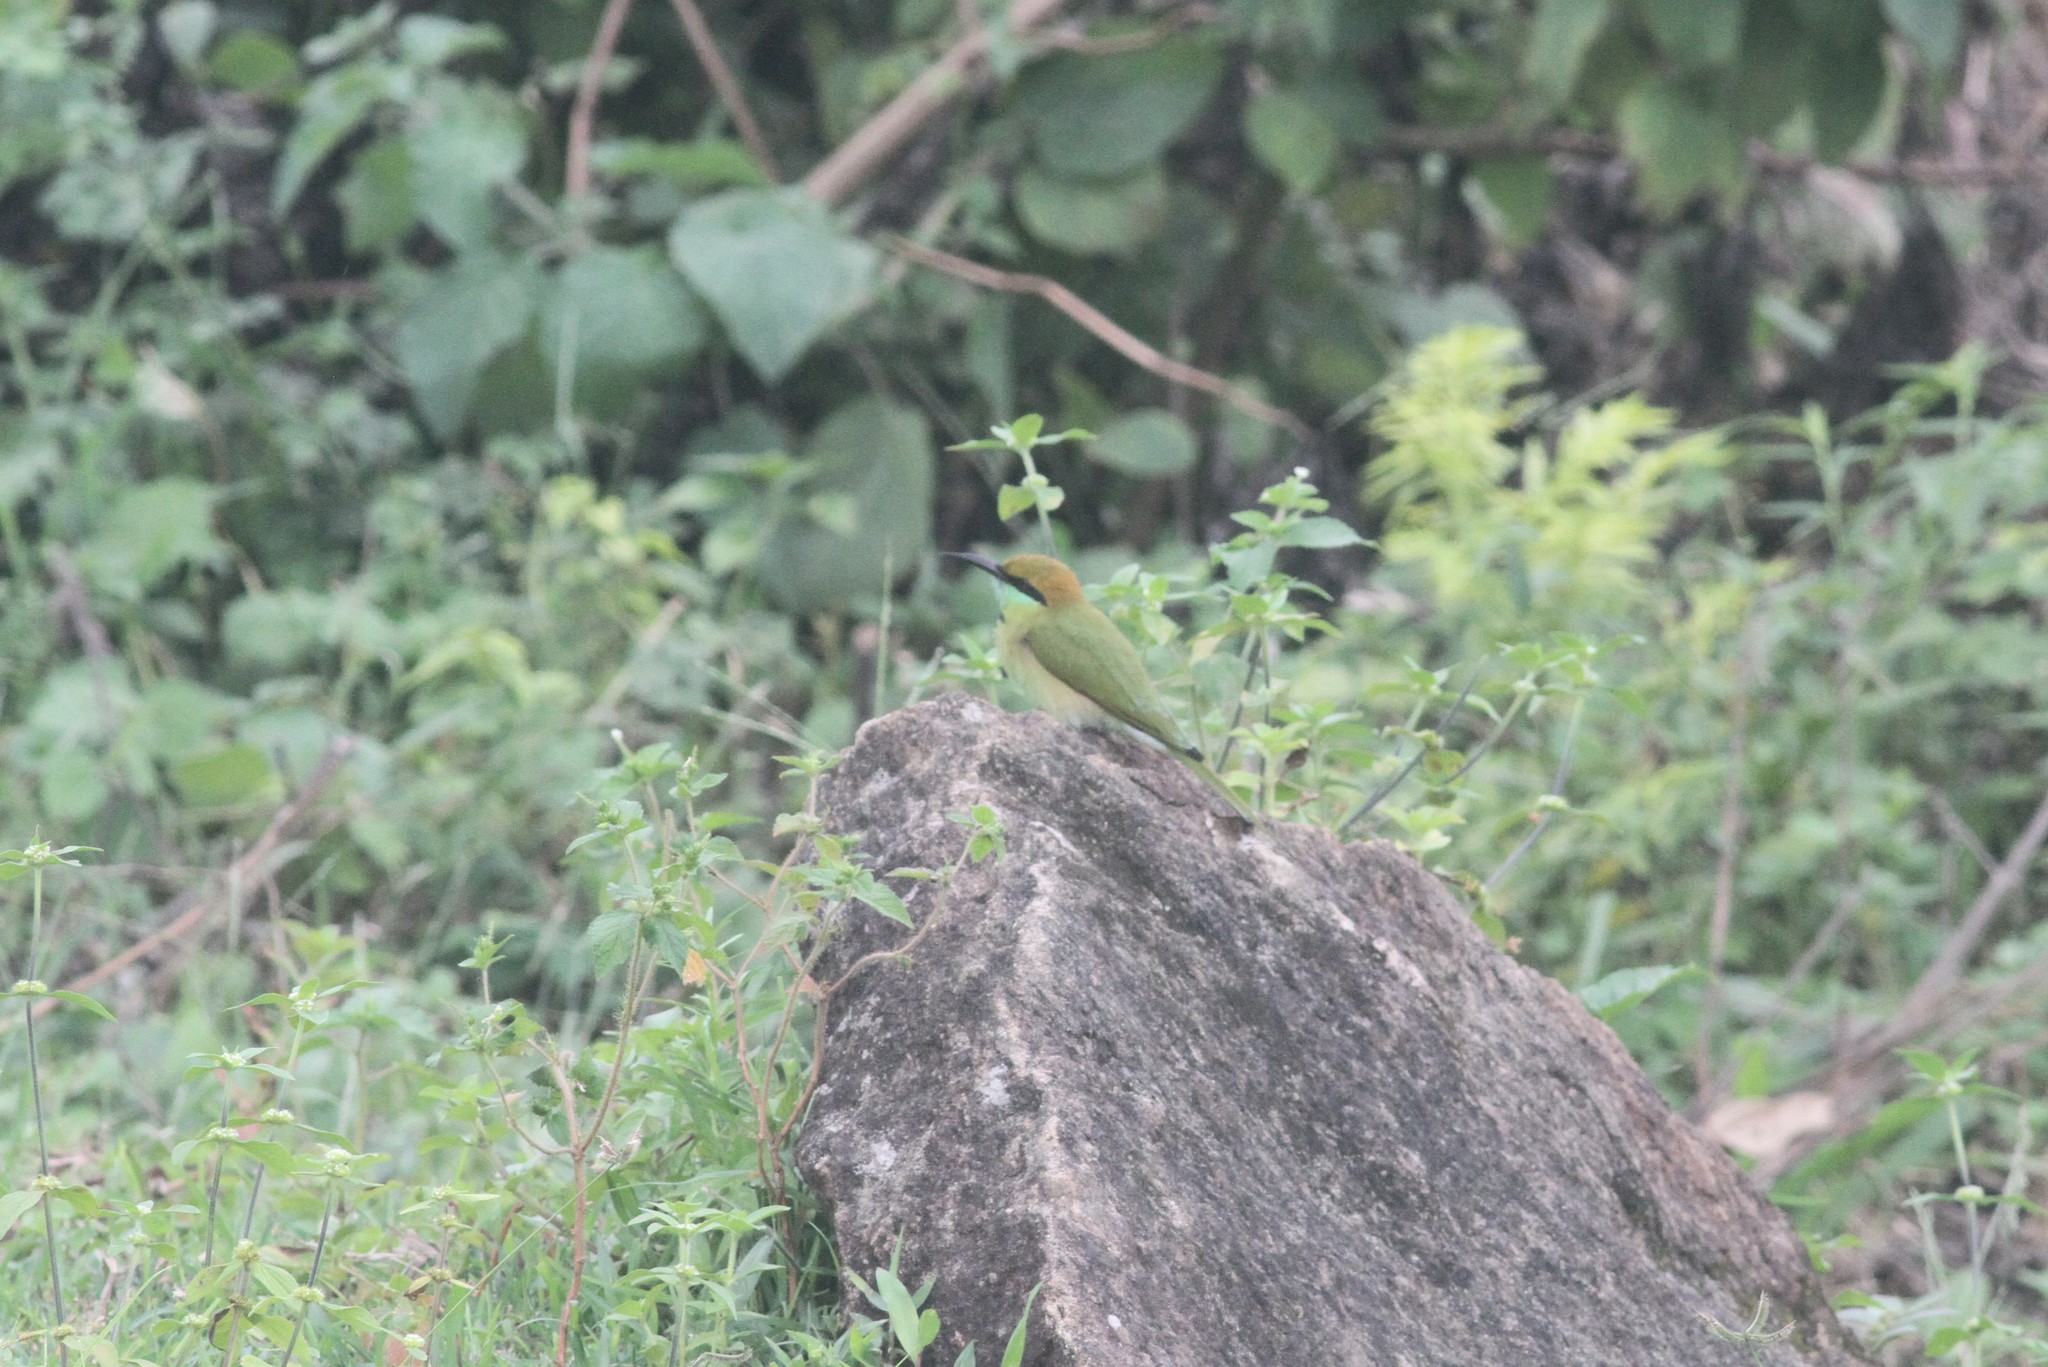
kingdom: Animalia
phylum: Chordata
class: Aves
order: Coraciiformes
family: Meropidae
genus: Merops
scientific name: Merops orientalis
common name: Green bee-eater
